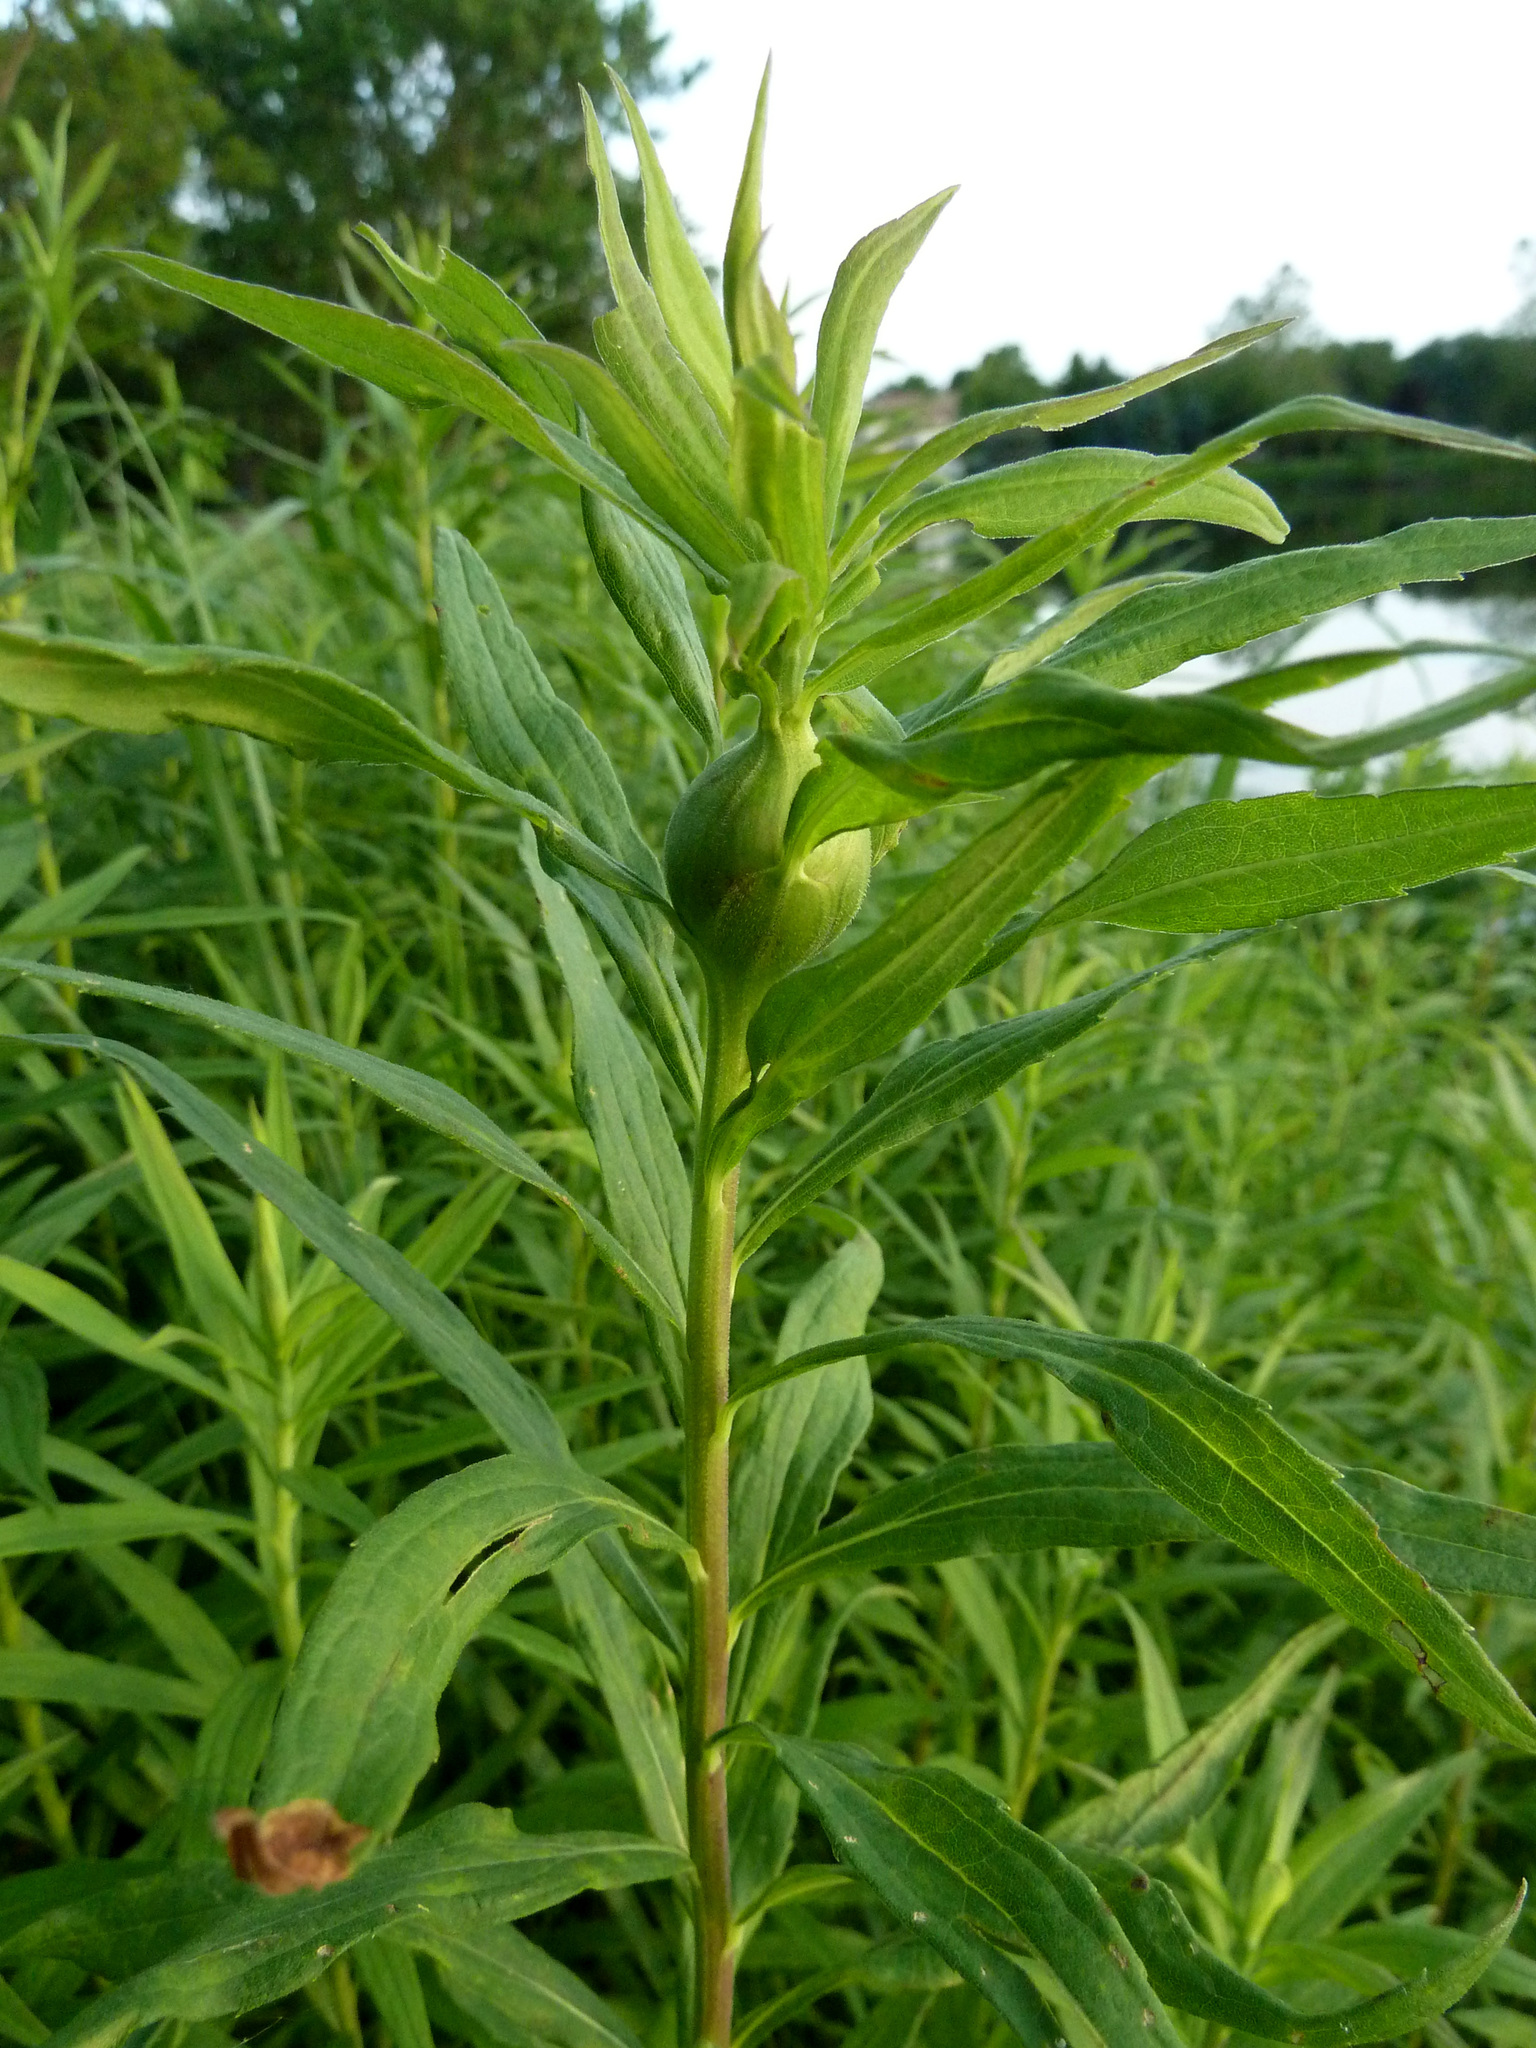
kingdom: Animalia
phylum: Arthropoda
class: Insecta
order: Diptera
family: Tephritidae
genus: Eurosta
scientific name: Eurosta solidaginis
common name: Goldenrod gall fly
